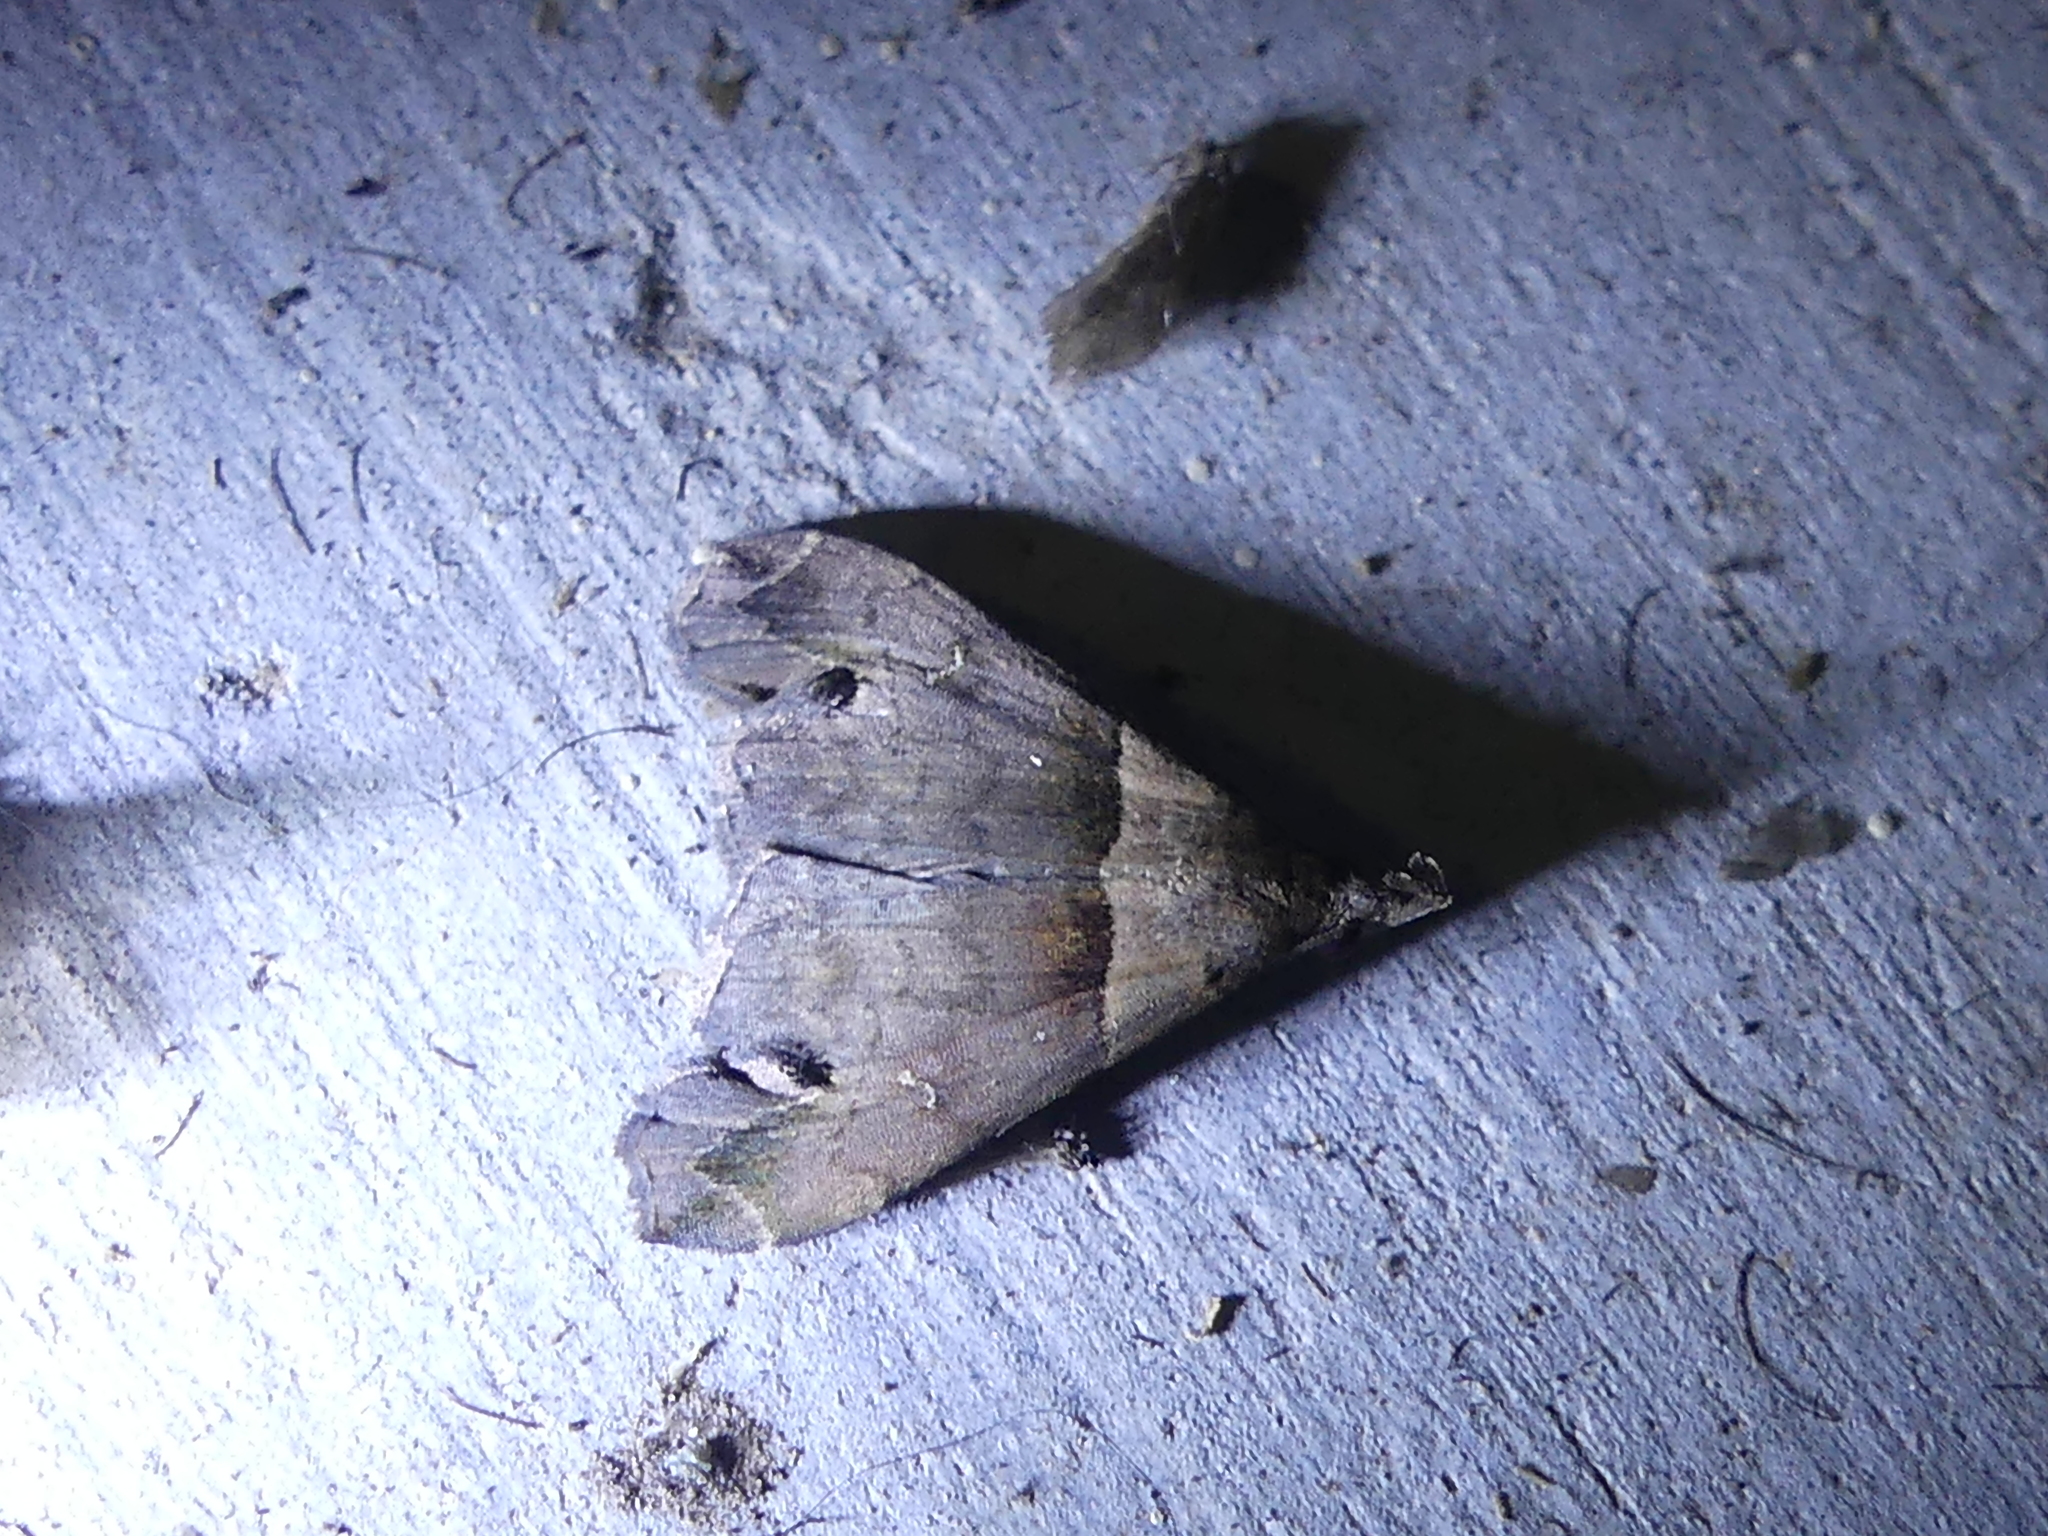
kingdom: Animalia
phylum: Arthropoda
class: Insecta
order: Lepidoptera
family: Erebidae
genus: Lascoria
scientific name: Lascoria ambigualis
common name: Ambiguous moth
